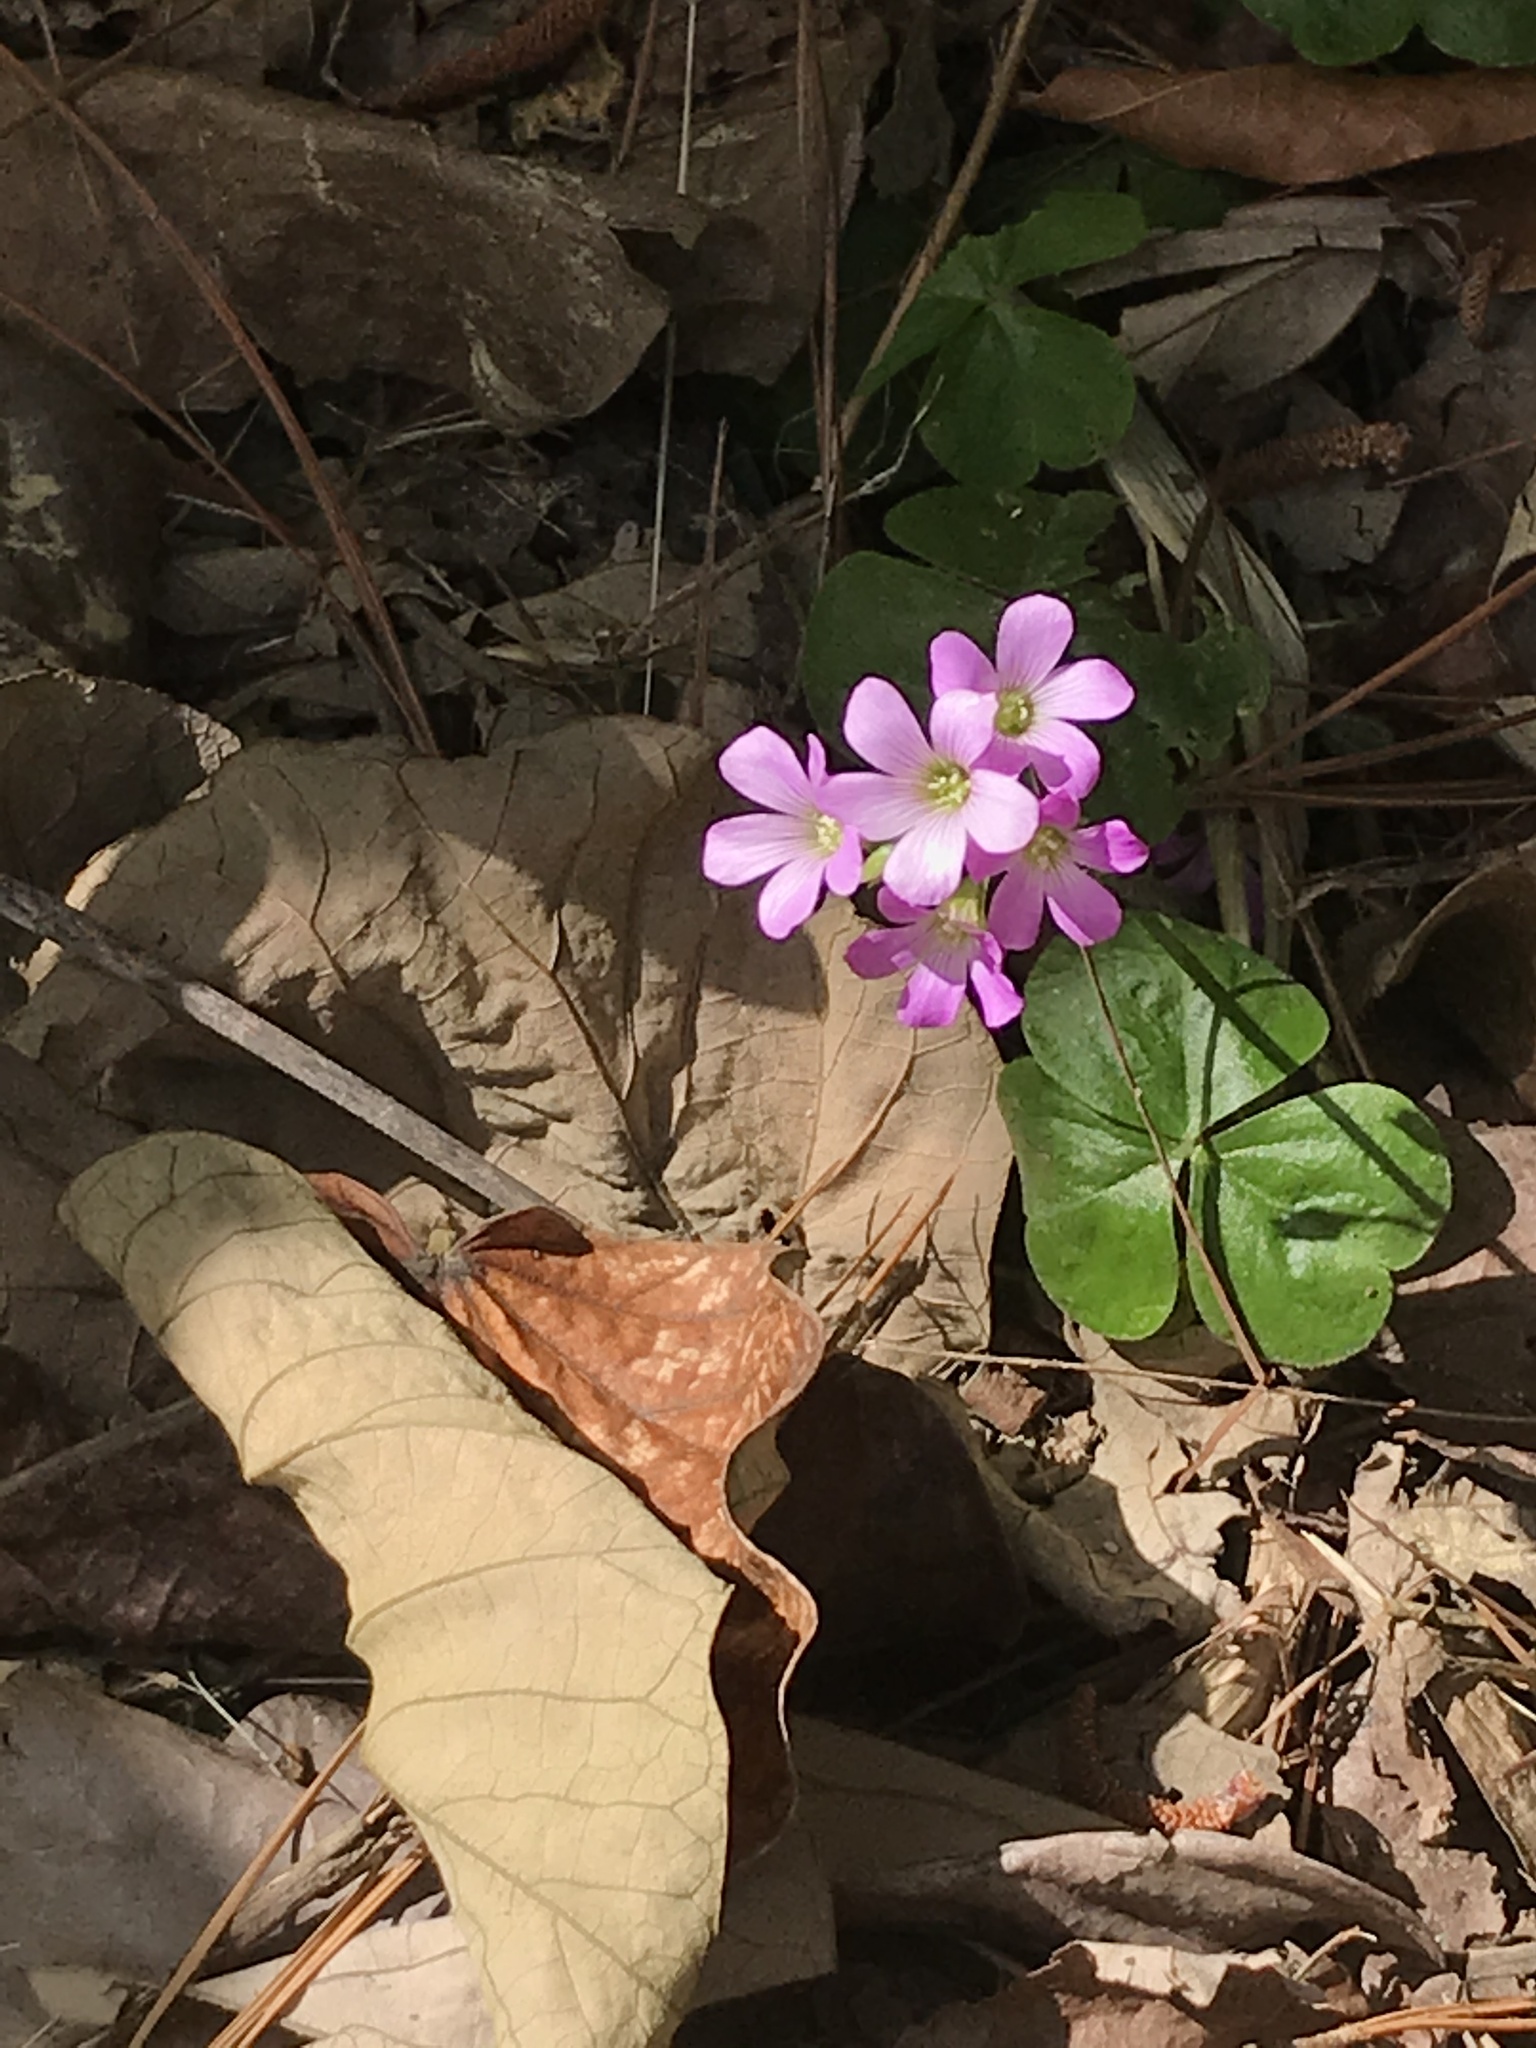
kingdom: Plantae
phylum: Tracheophyta
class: Magnoliopsida
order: Oxalidales
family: Oxalidaceae
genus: Oxalis
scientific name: Oxalis debilis
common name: Large-flowered pink-sorrel
